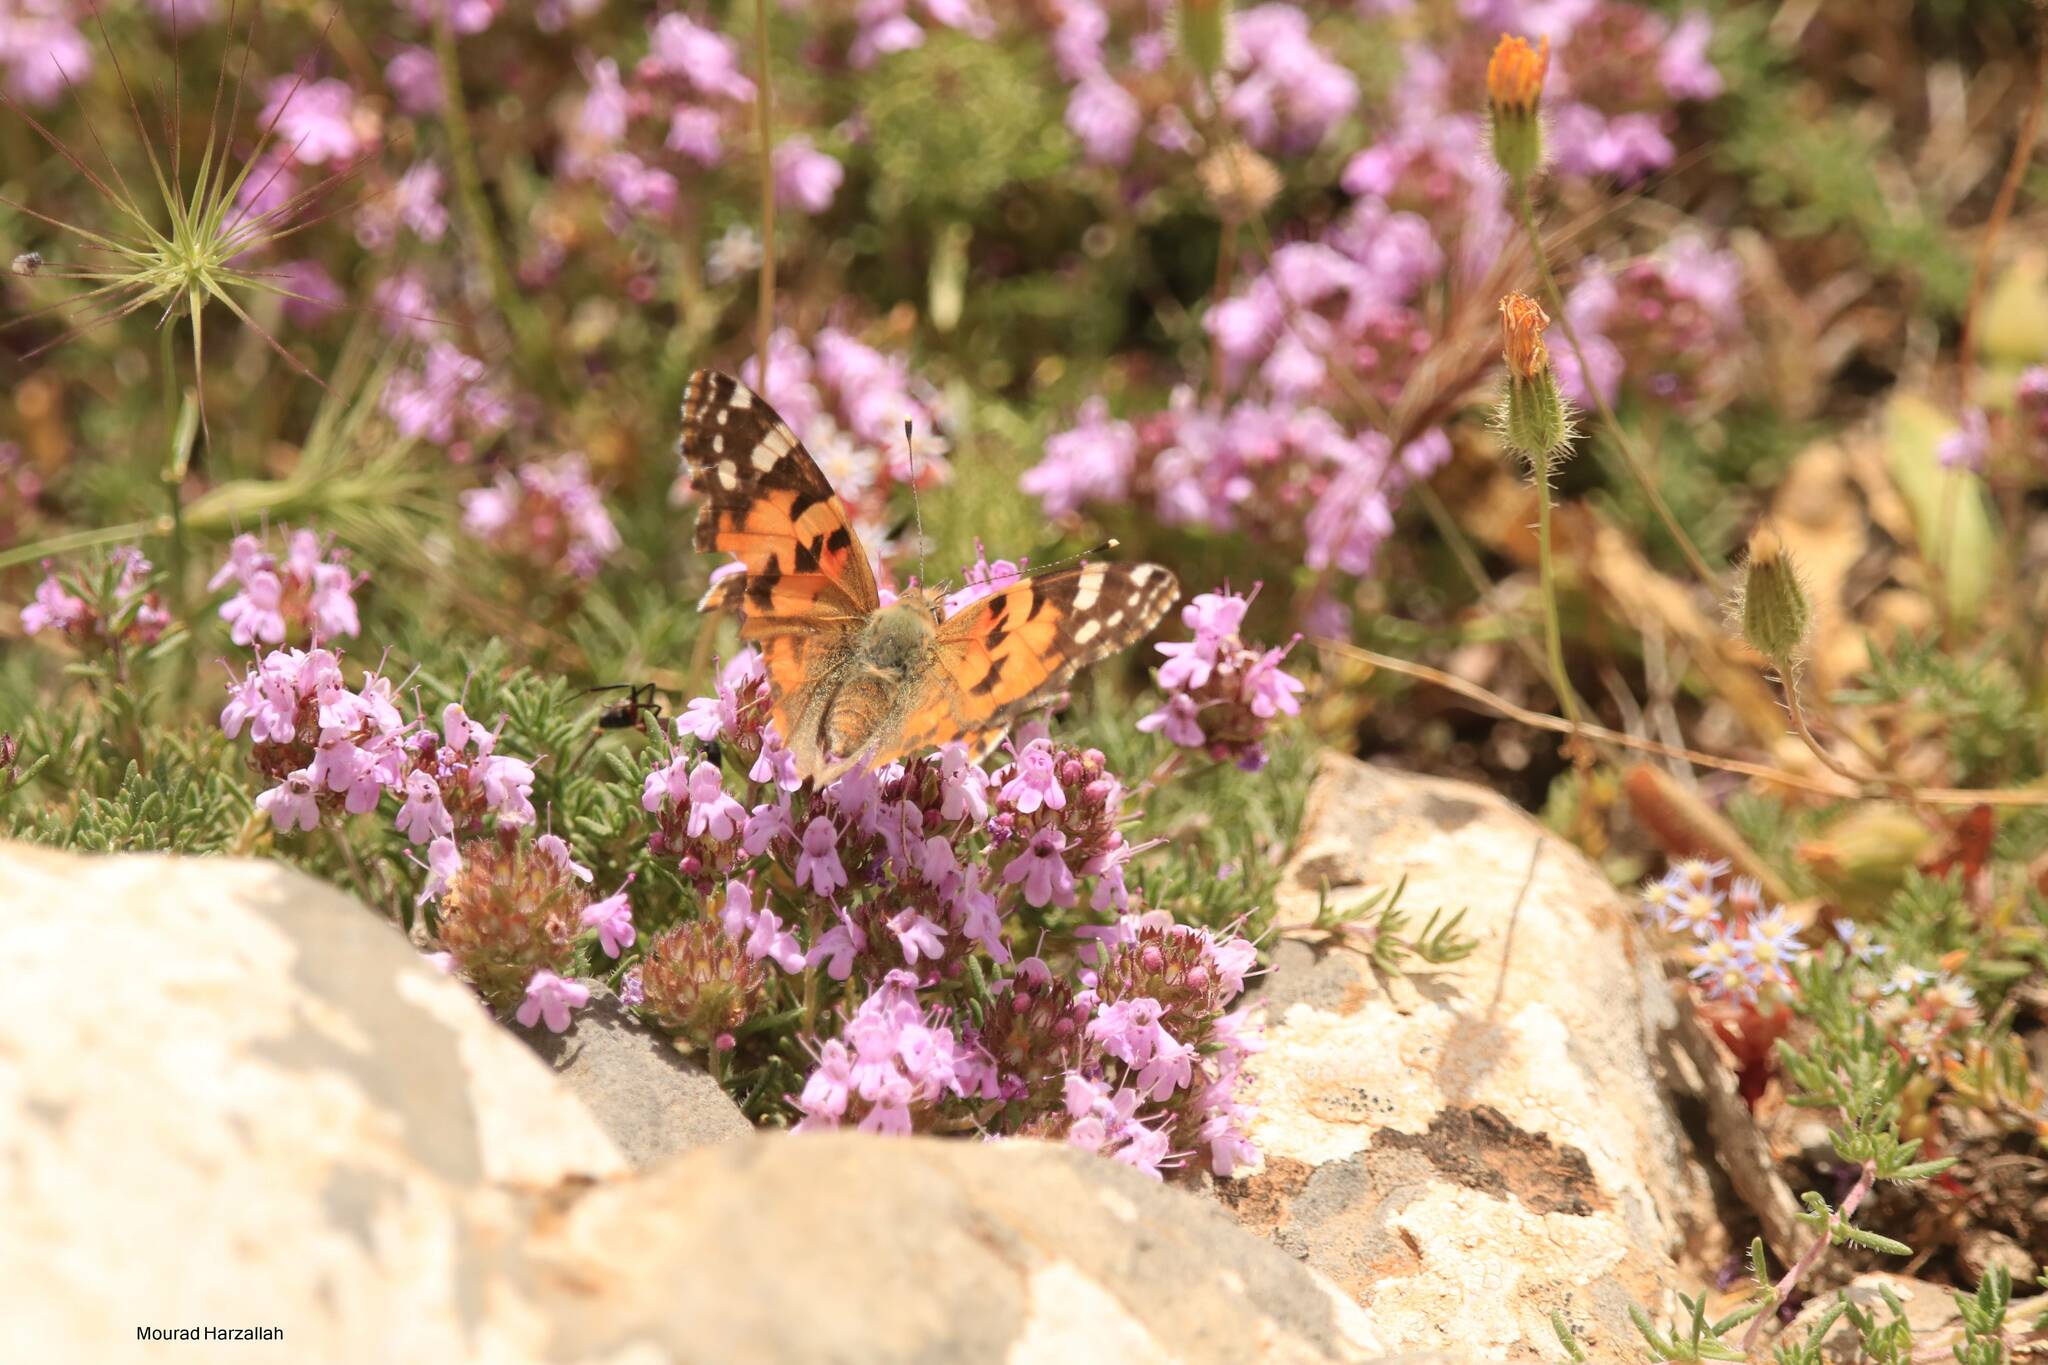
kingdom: Animalia
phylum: Arthropoda
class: Insecta
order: Lepidoptera
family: Nymphalidae
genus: Vanessa
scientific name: Vanessa cardui
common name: Painted lady
